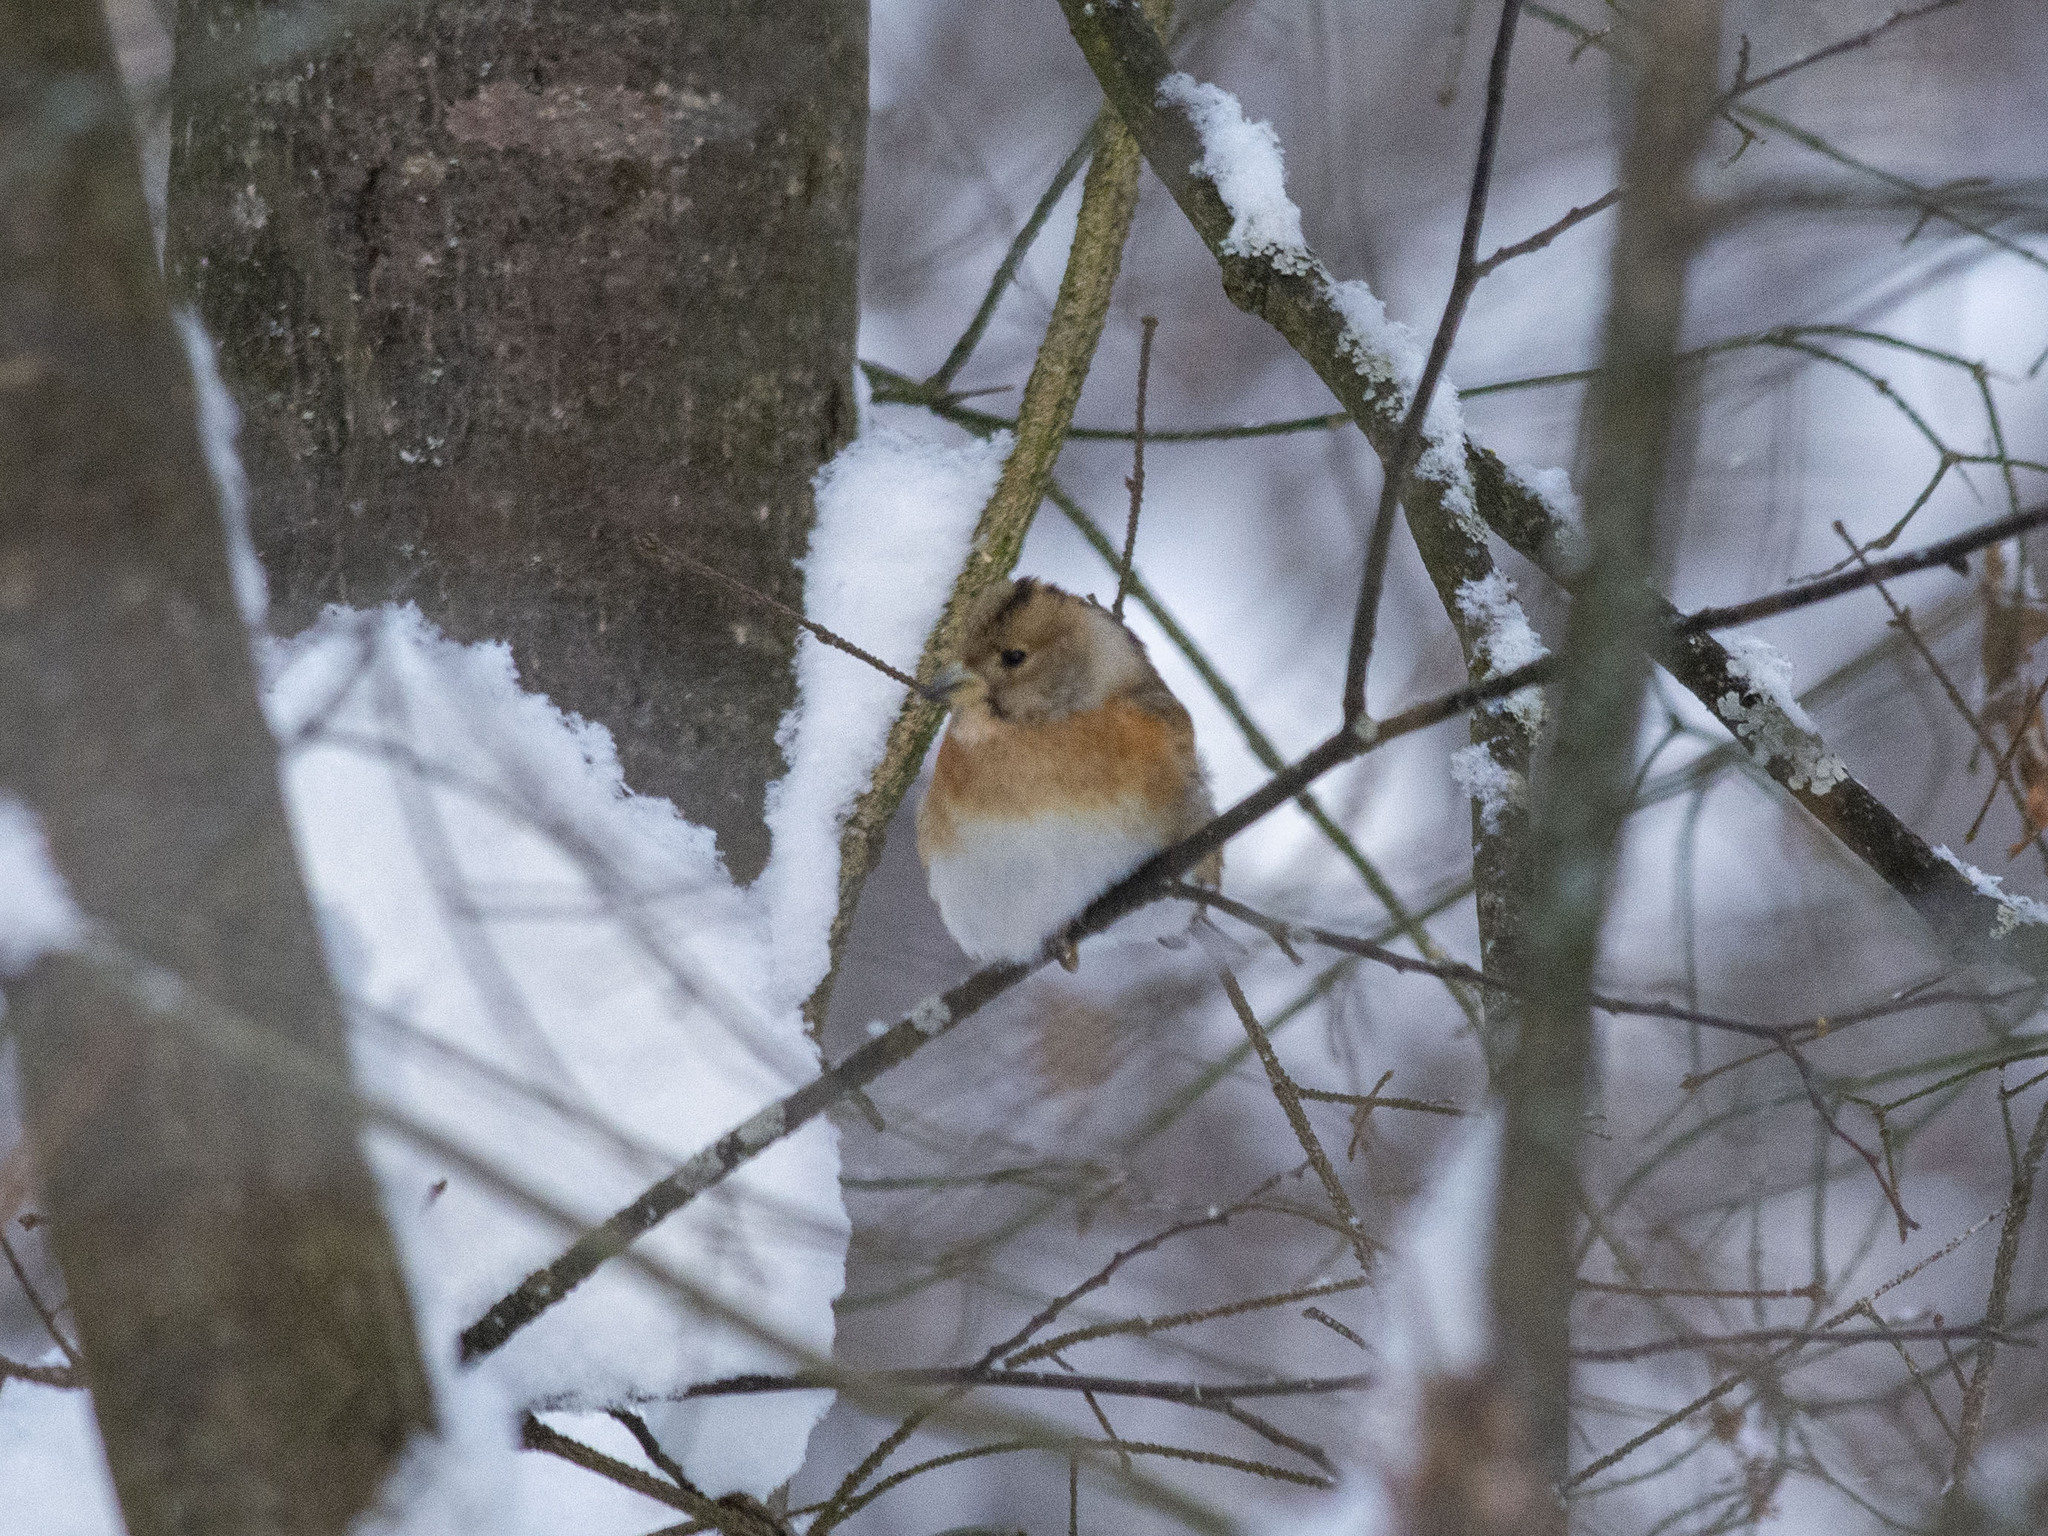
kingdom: Animalia
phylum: Chordata
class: Aves
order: Passeriformes
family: Fringillidae
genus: Fringilla
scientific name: Fringilla montifringilla
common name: Brambling
